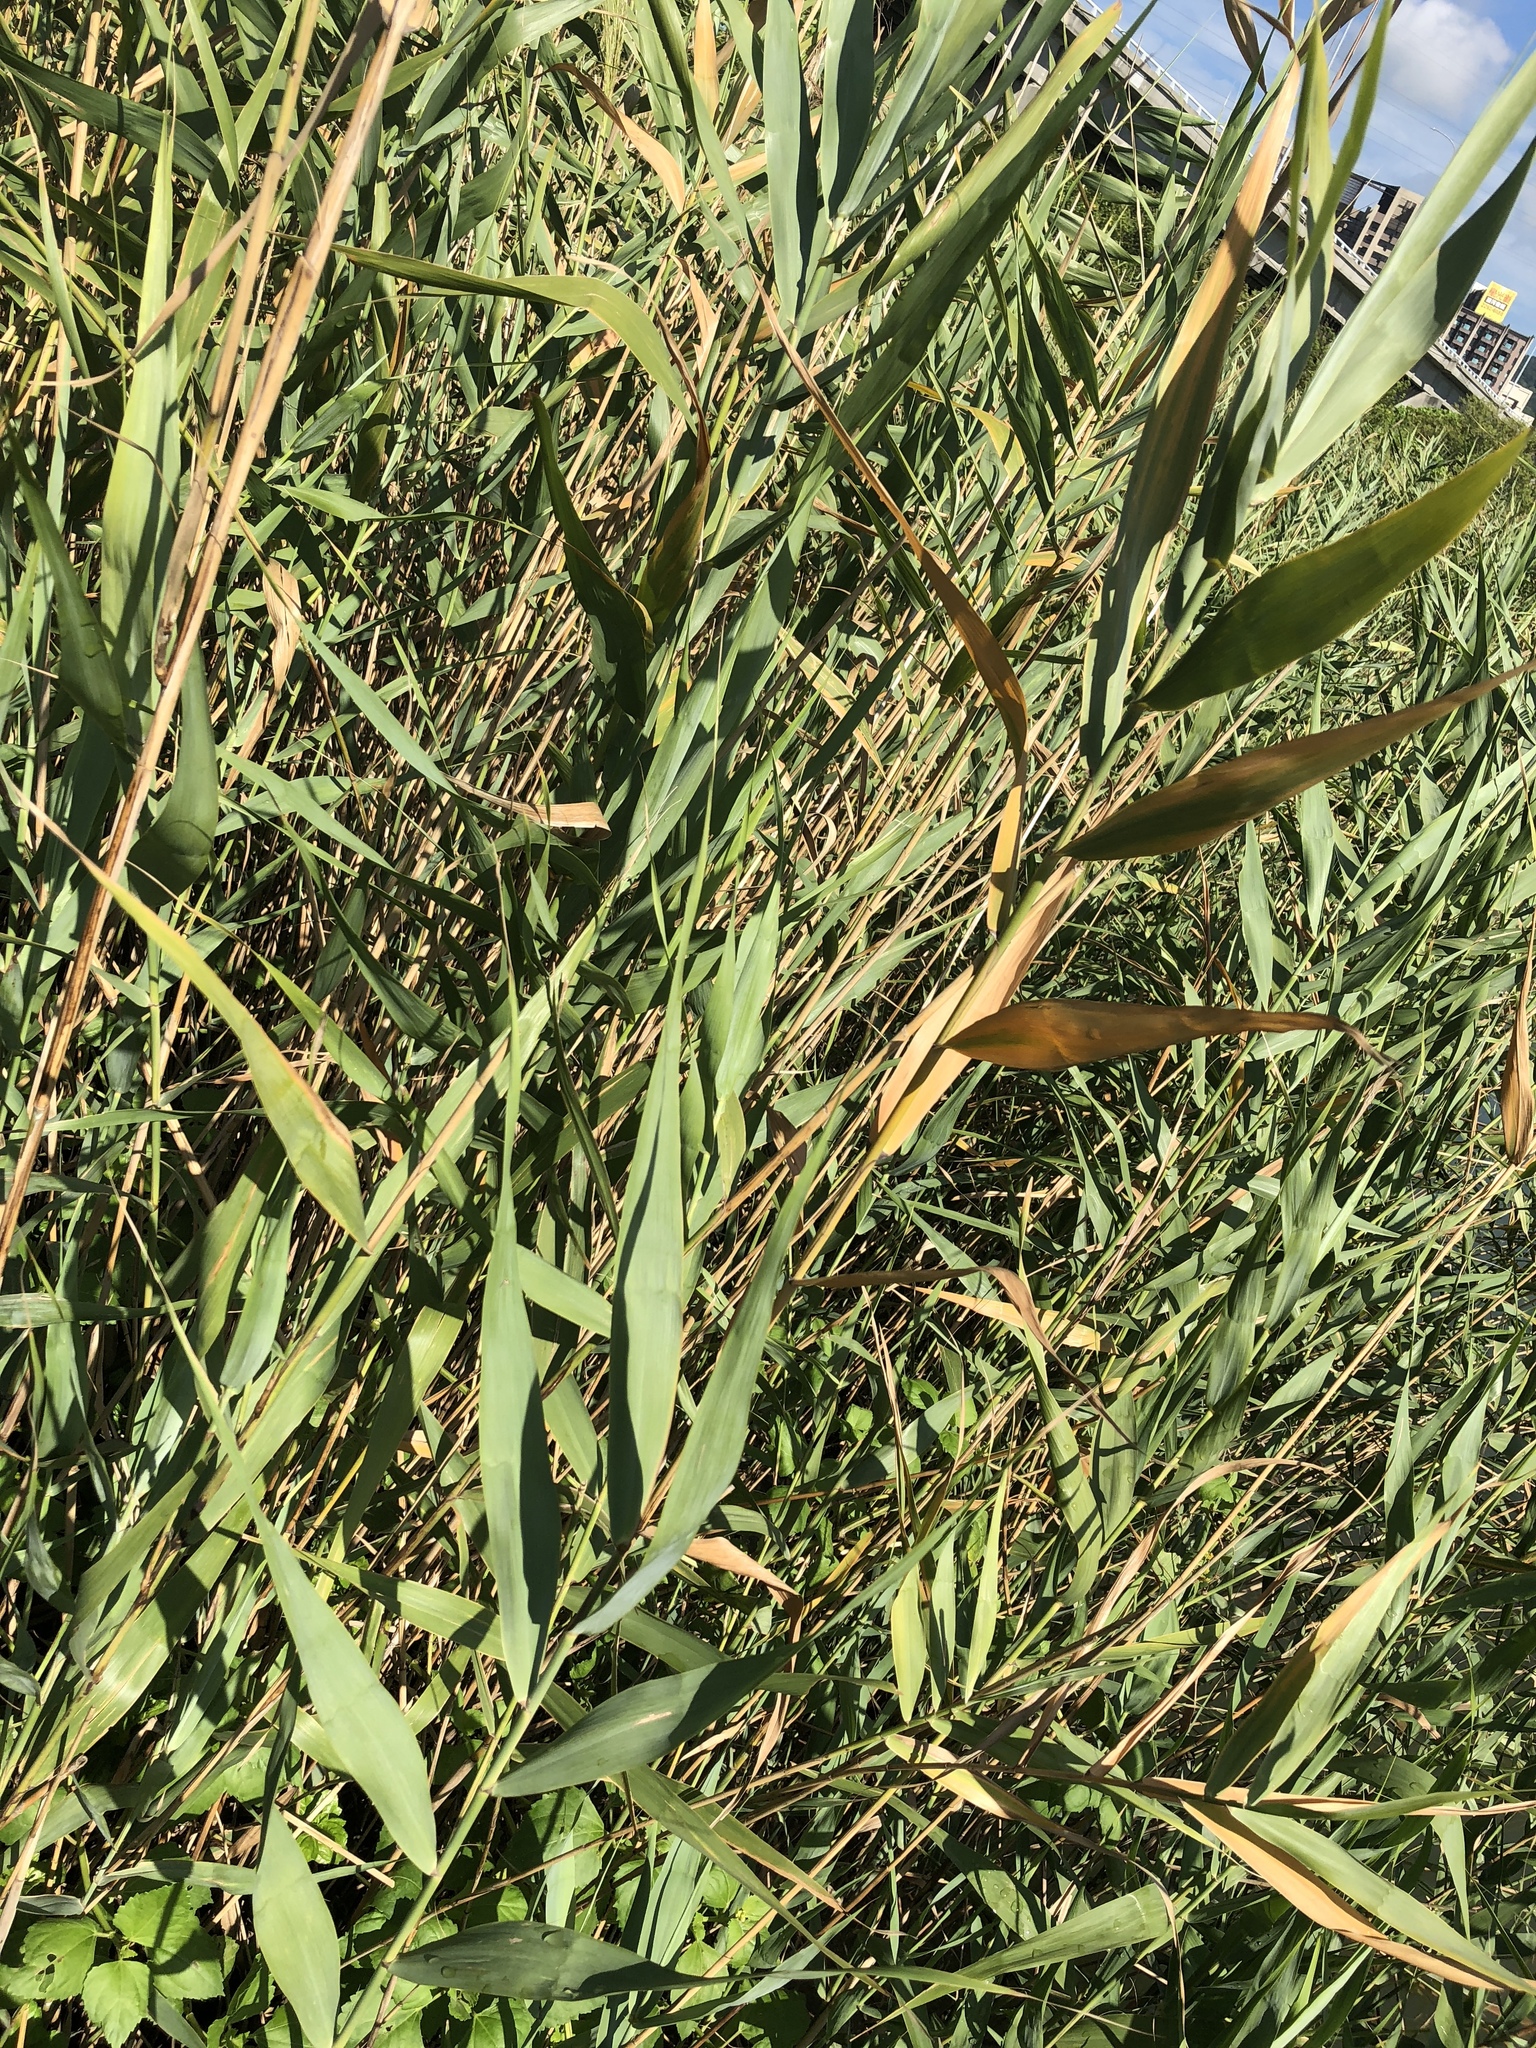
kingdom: Plantae
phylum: Tracheophyta
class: Liliopsida
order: Poales
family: Poaceae
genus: Phragmites
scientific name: Phragmites australis
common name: Common reed
